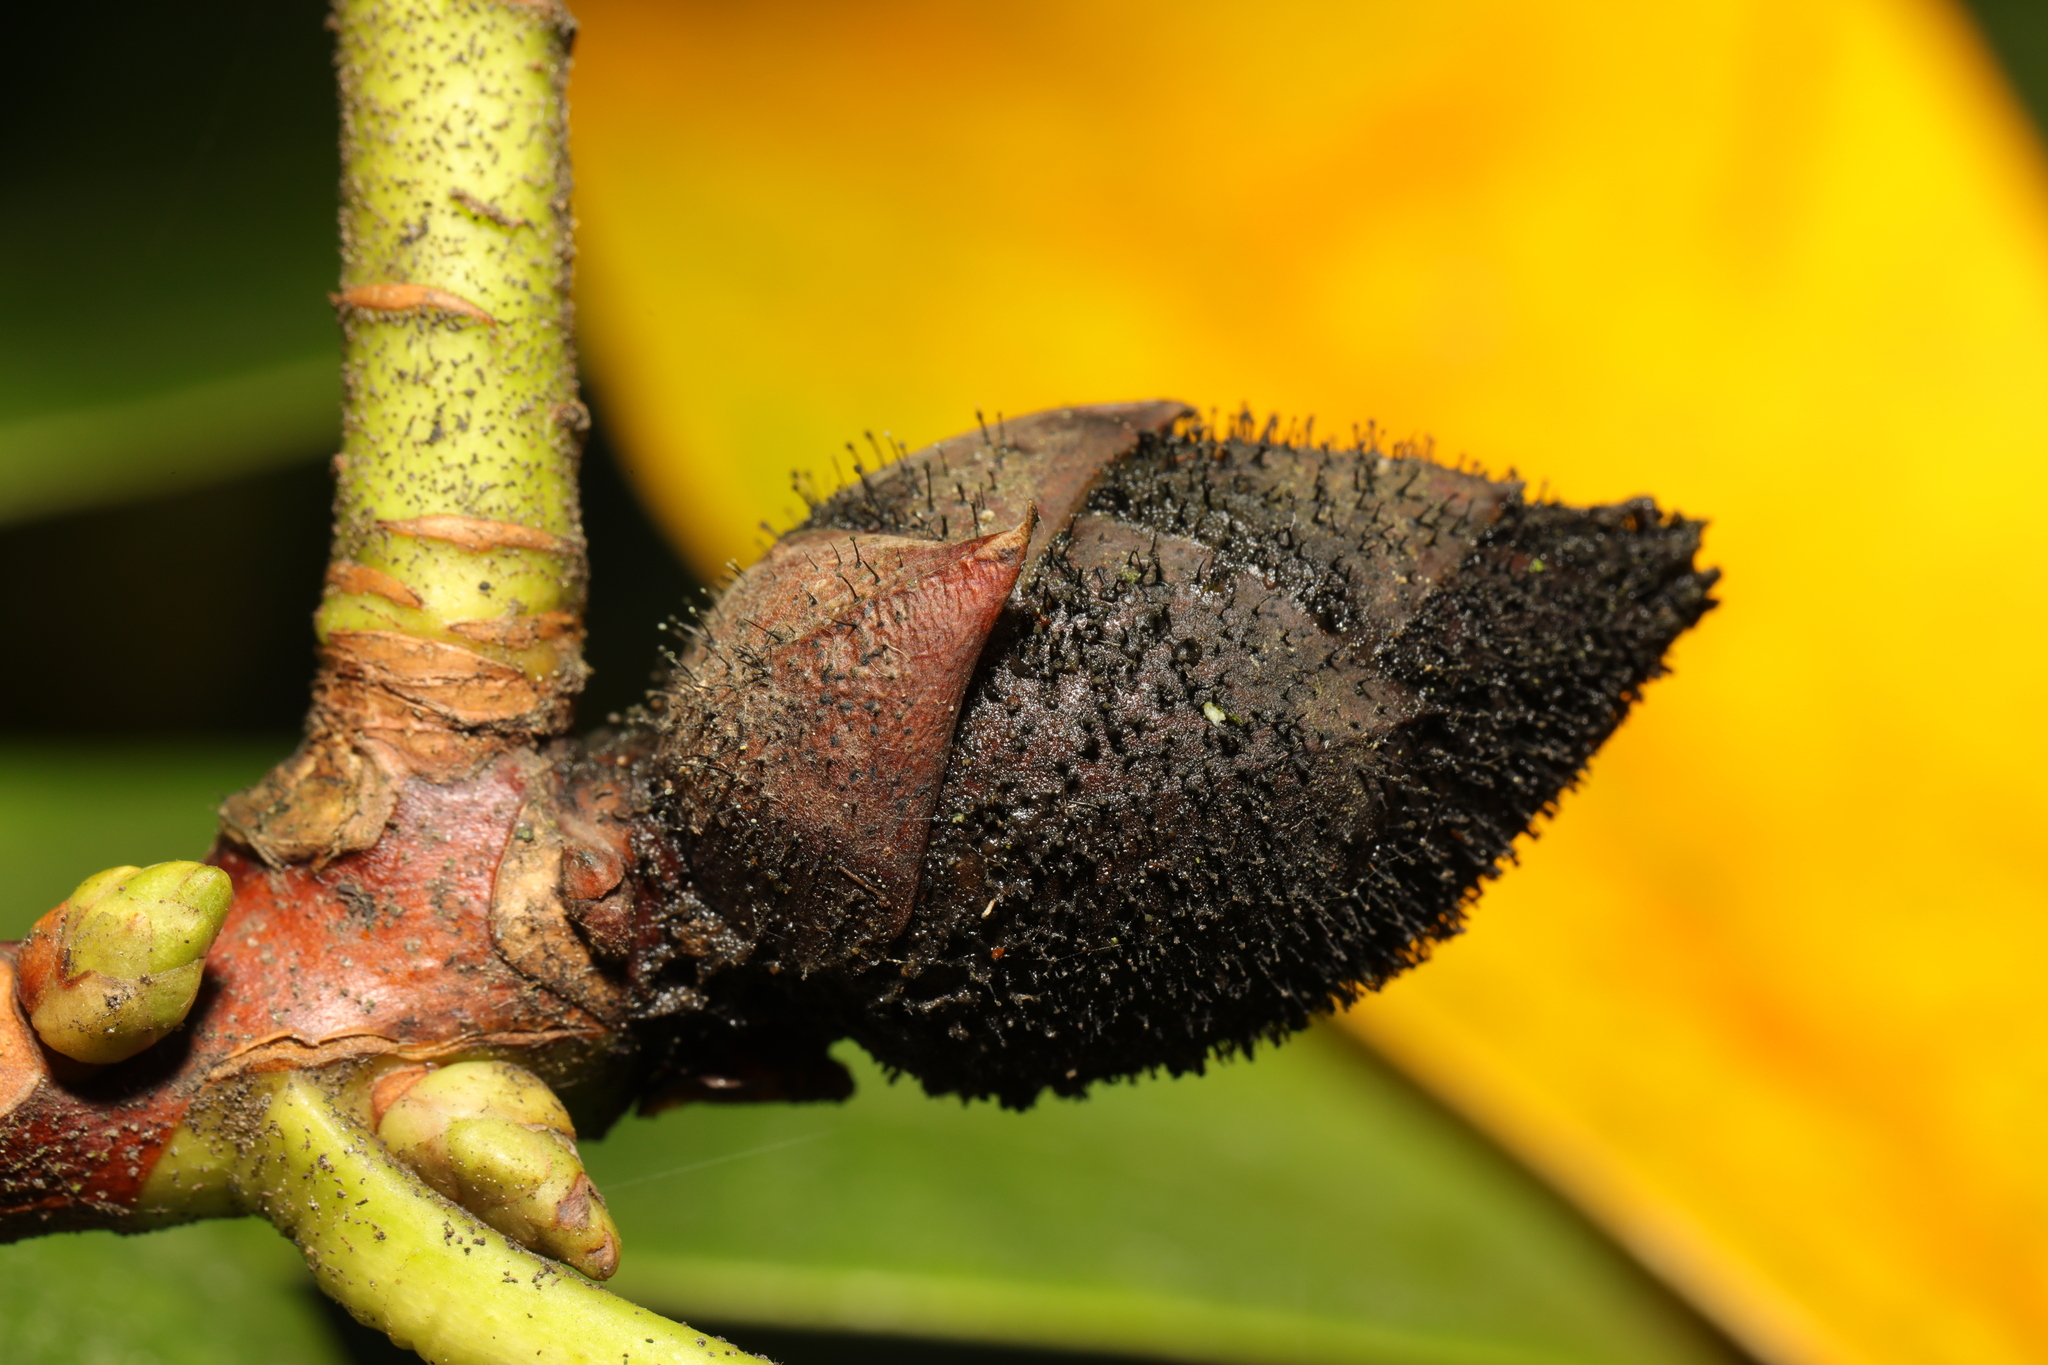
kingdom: Fungi
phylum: Ascomycota
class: Dothideomycetes
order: Pleosporales
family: Melanommataceae
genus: Seifertia
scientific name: Seifertia azaleae
